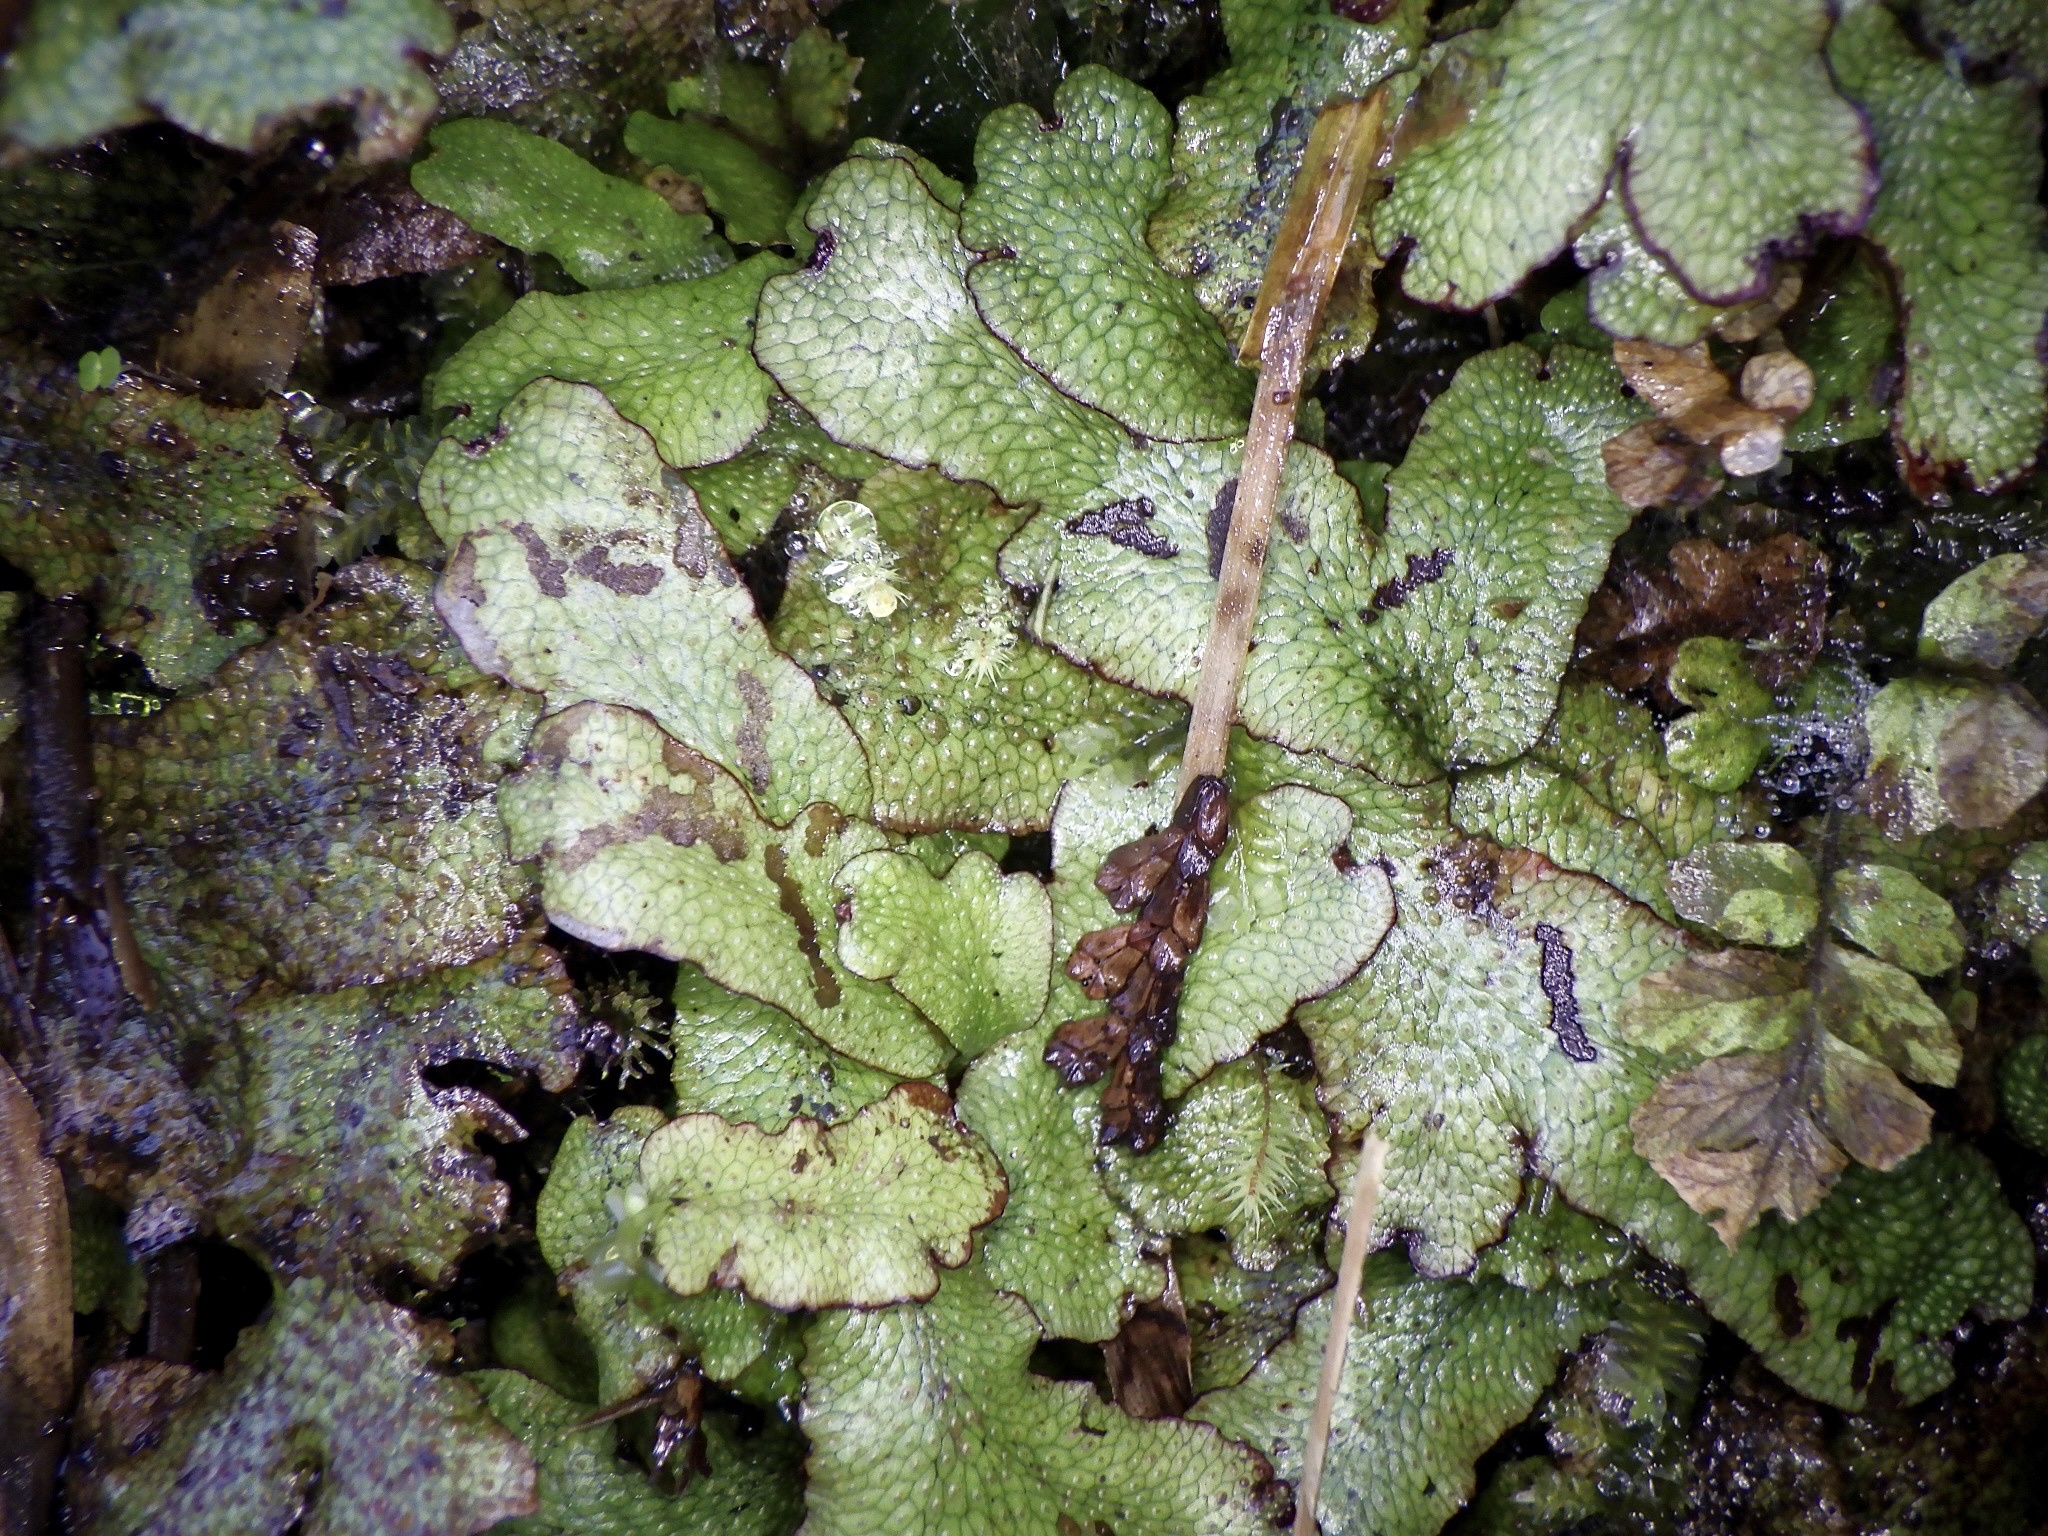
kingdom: Plantae
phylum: Marchantiophyta
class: Marchantiopsida
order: Marchantiales
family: Conocephalaceae
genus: Conocephalum
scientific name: Conocephalum salebrosum
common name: Cat-tongue liverwort
